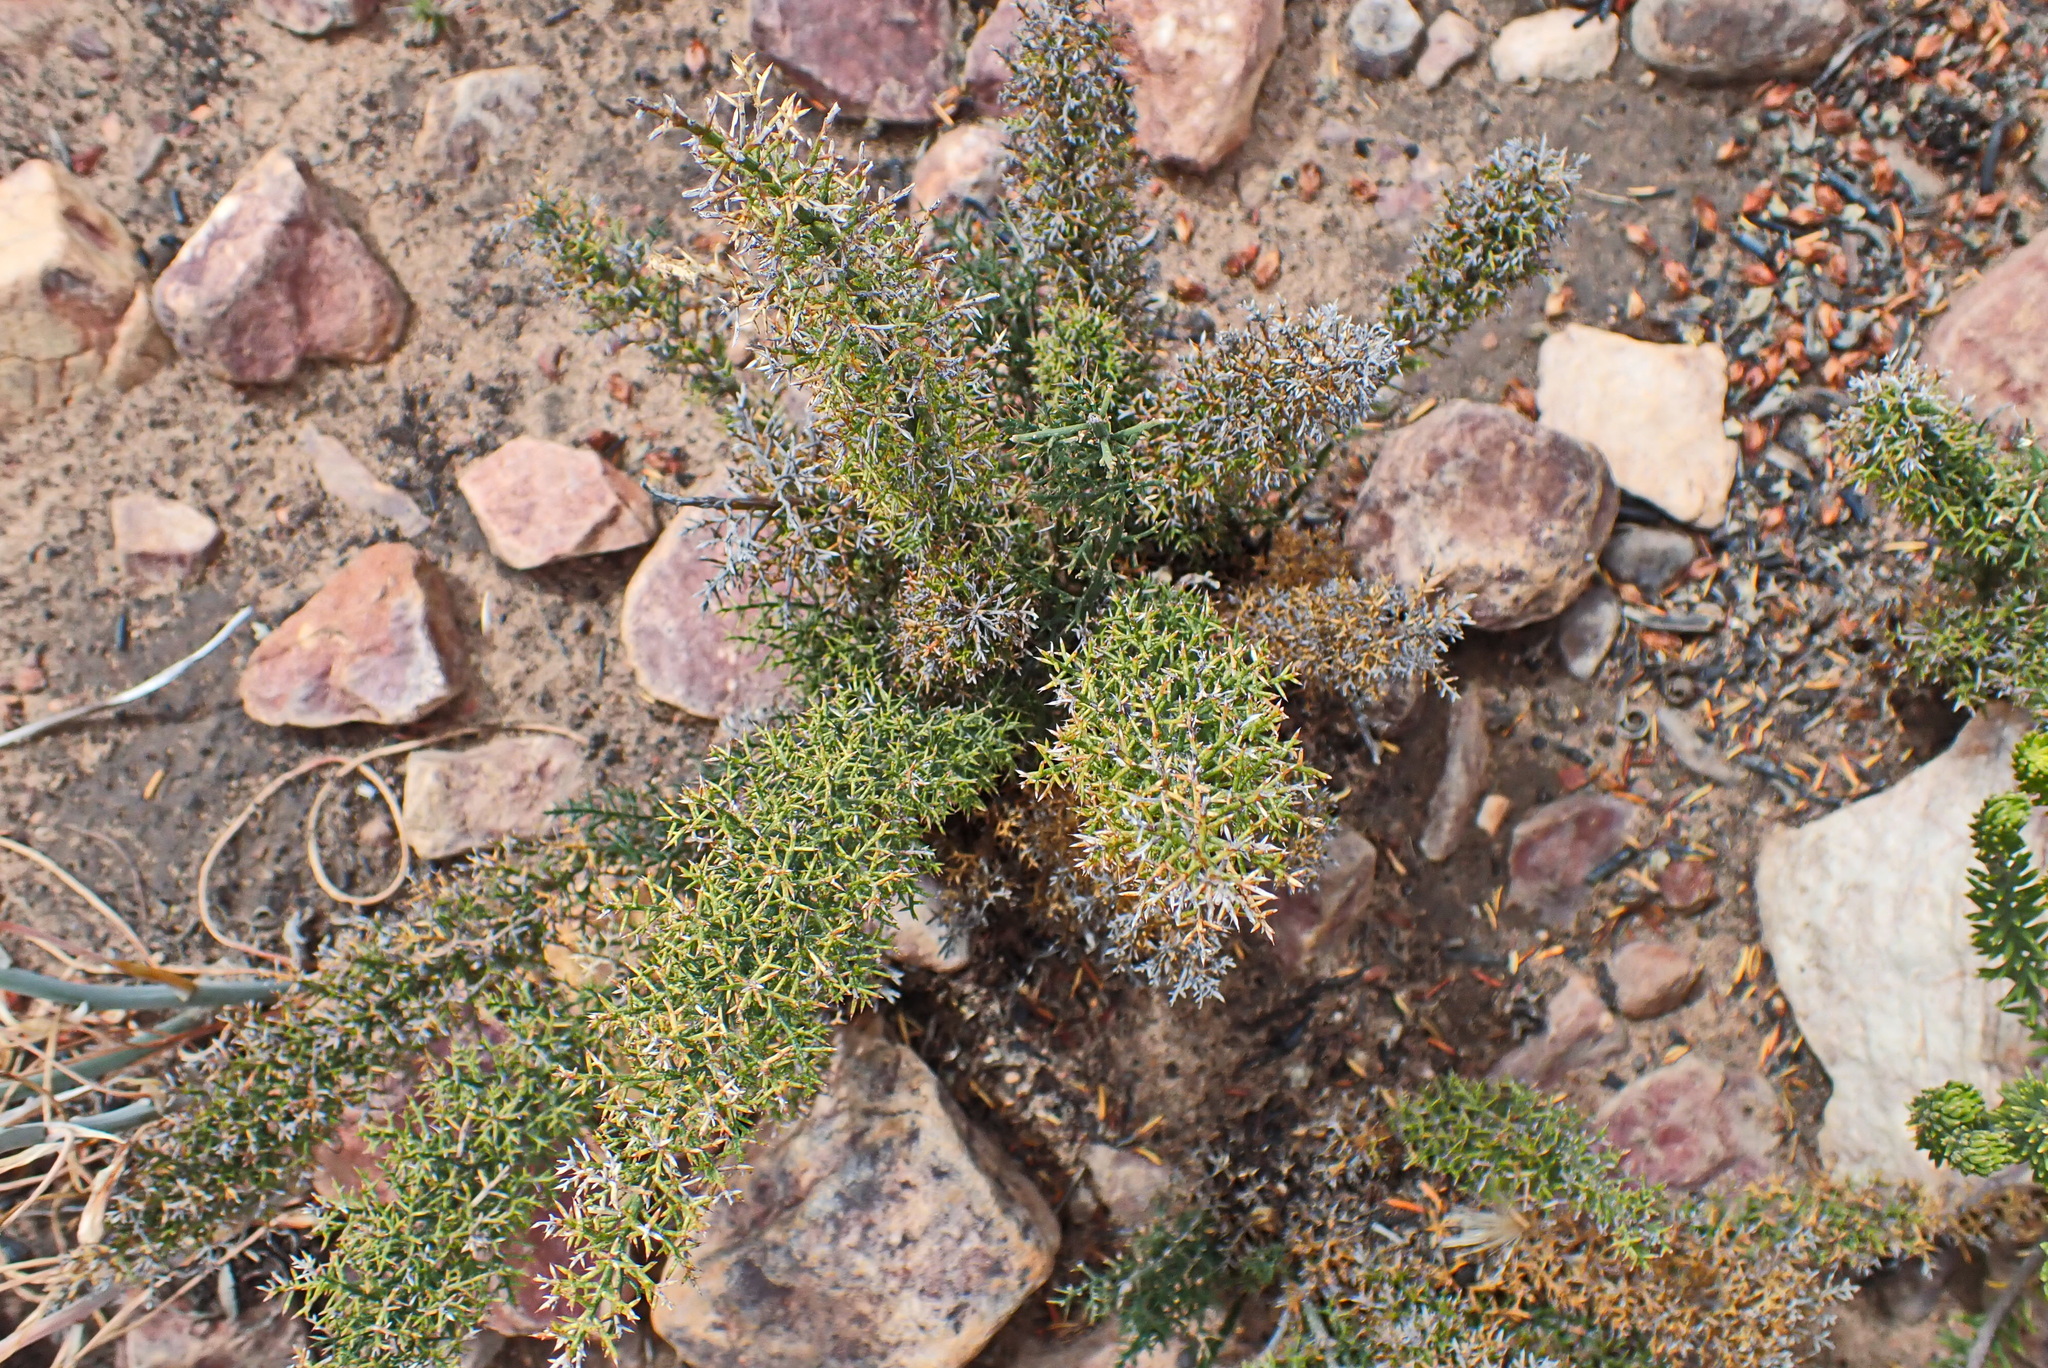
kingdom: Plantae
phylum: Tracheophyta
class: Liliopsida
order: Asparagales
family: Asparagaceae
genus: Asparagus
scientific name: Asparagus oliveri
